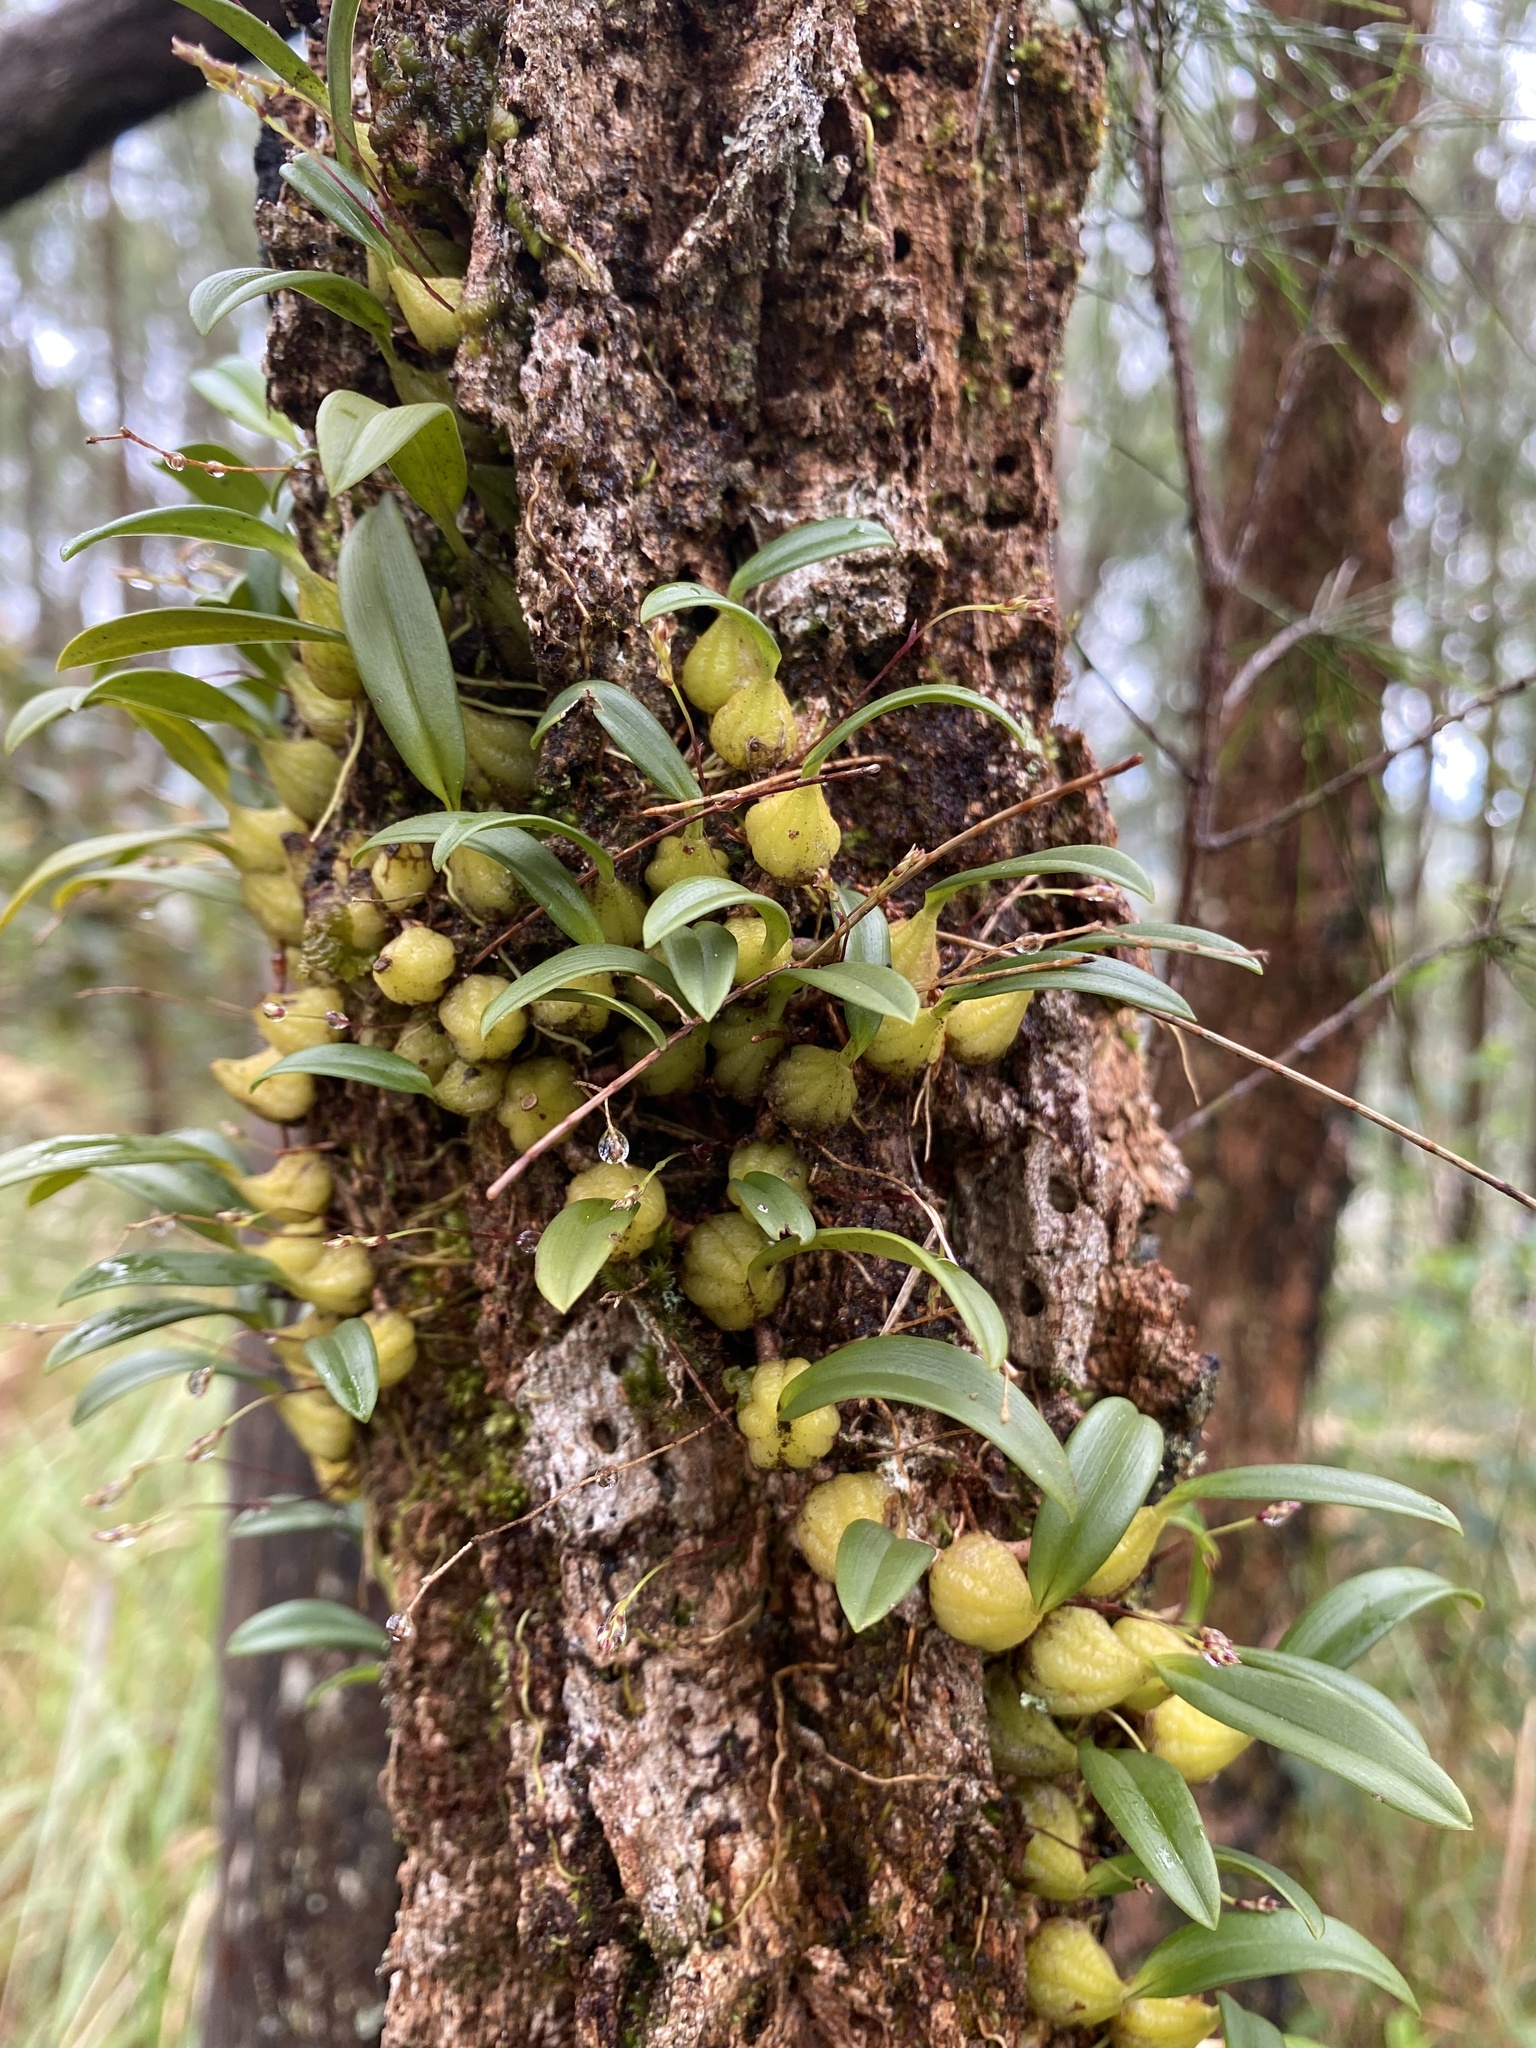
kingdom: Plantae
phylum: Tracheophyta
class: Liliopsida
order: Asparagales
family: Orchidaceae
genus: Bulbophyllum
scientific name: Bulbophyllum newportii
